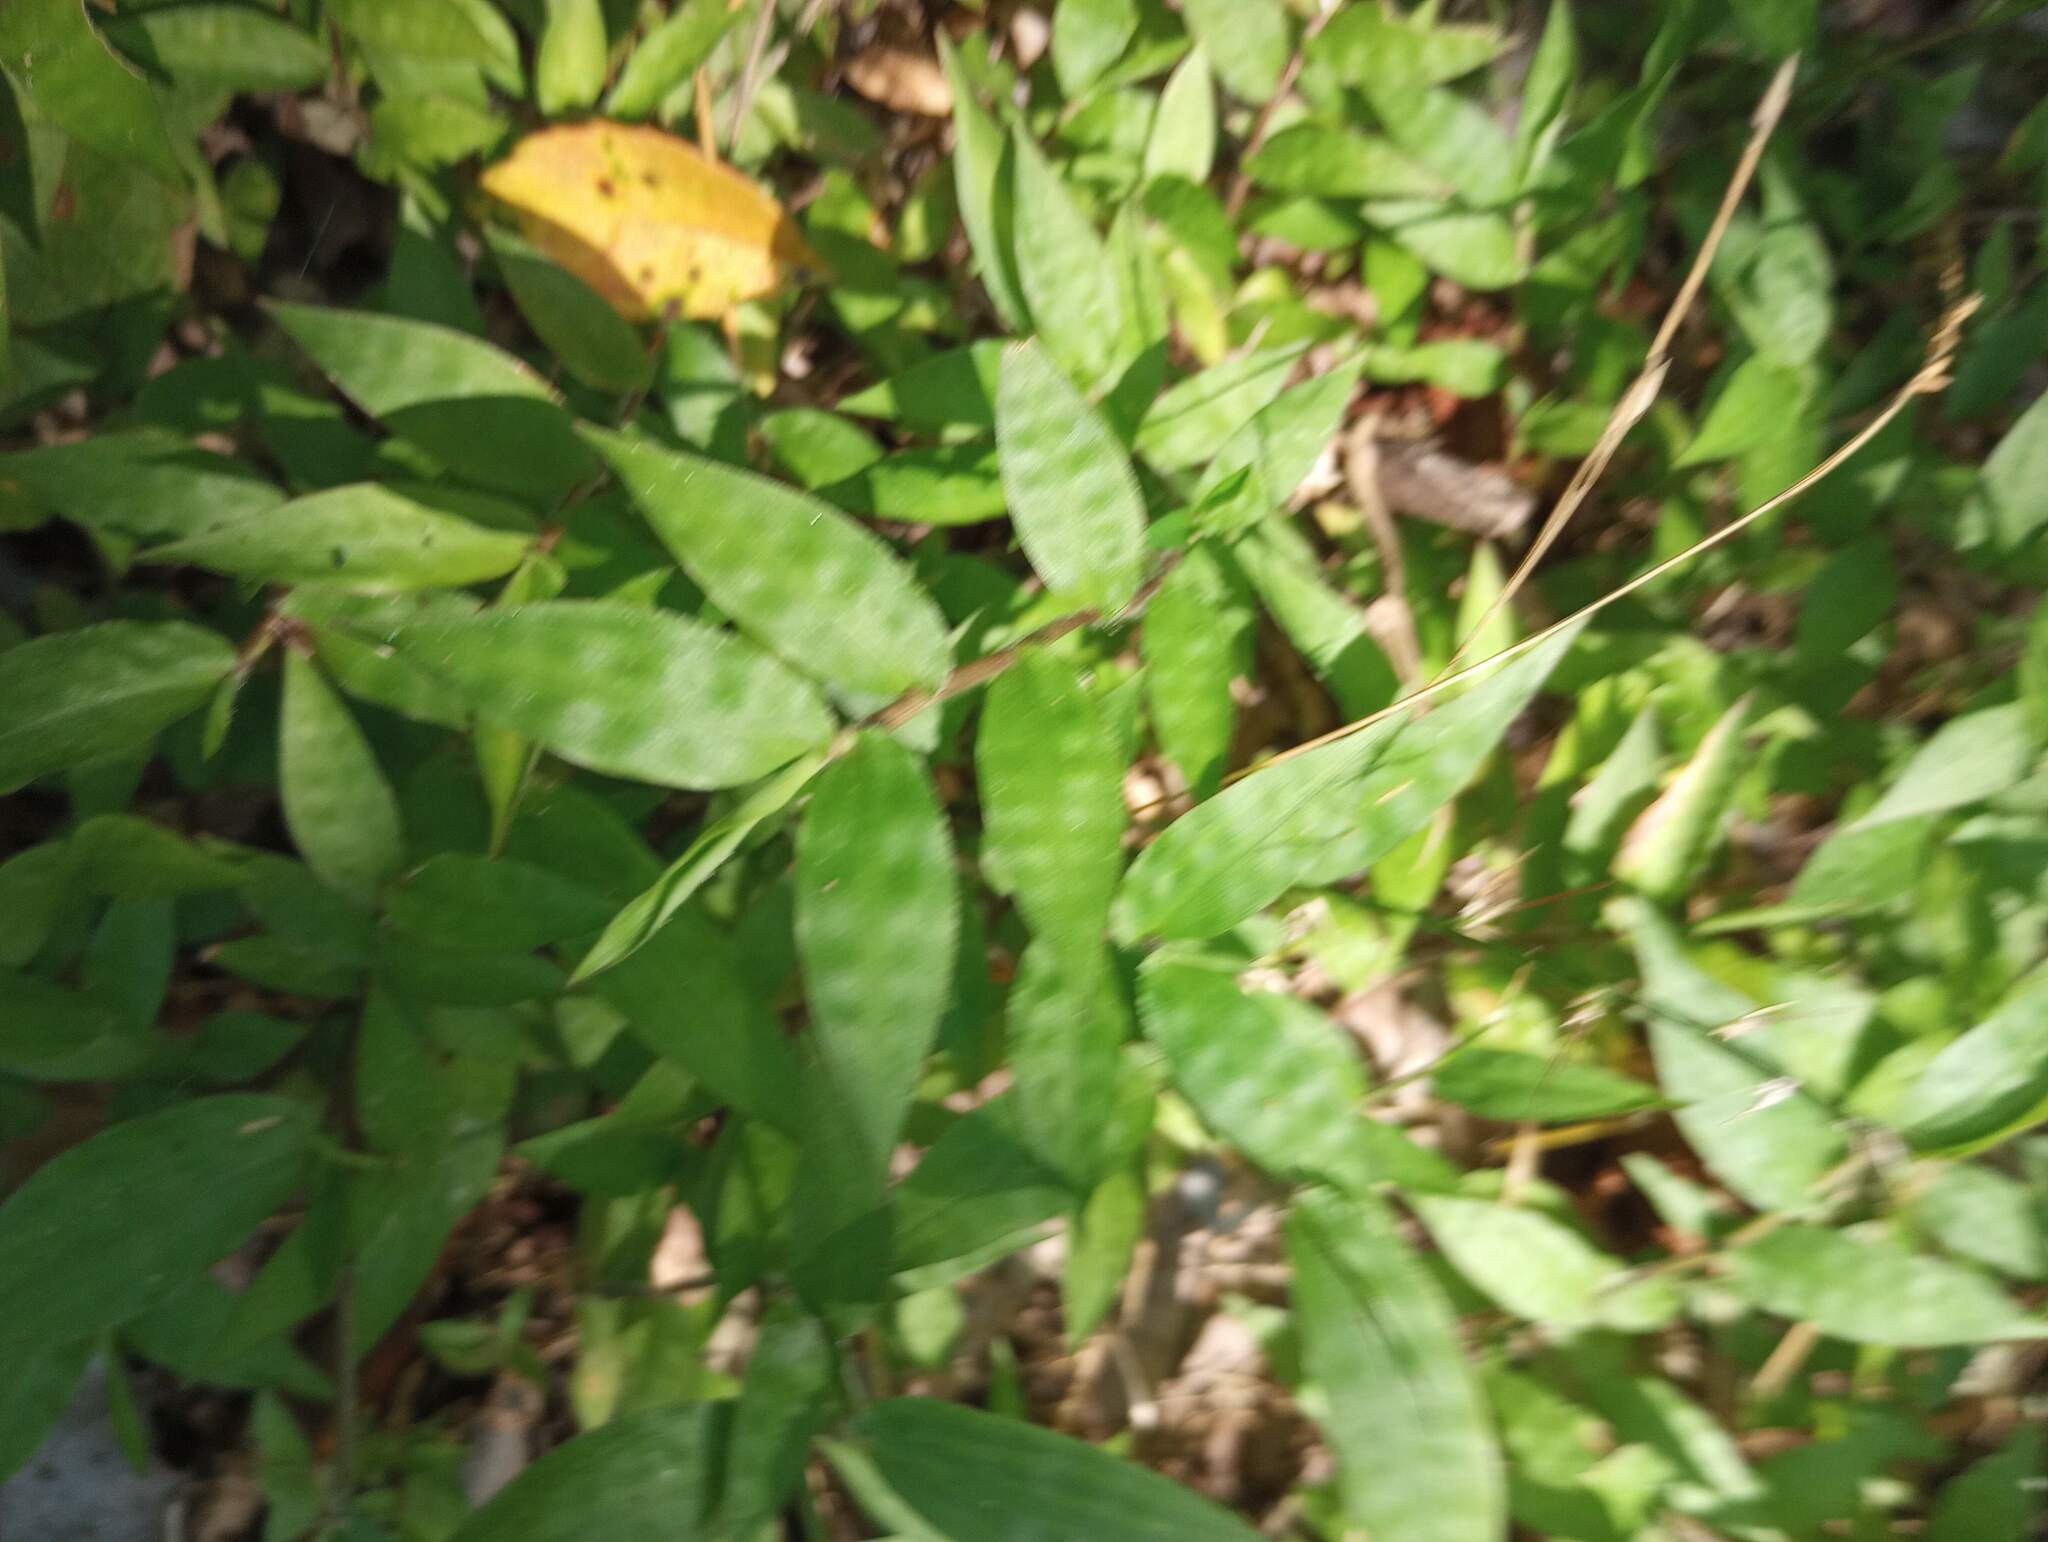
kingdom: Plantae
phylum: Tracheophyta
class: Liliopsida
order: Poales
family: Poaceae
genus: Oplismenus
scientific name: Oplismenus hirtellus
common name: Basketgrass
